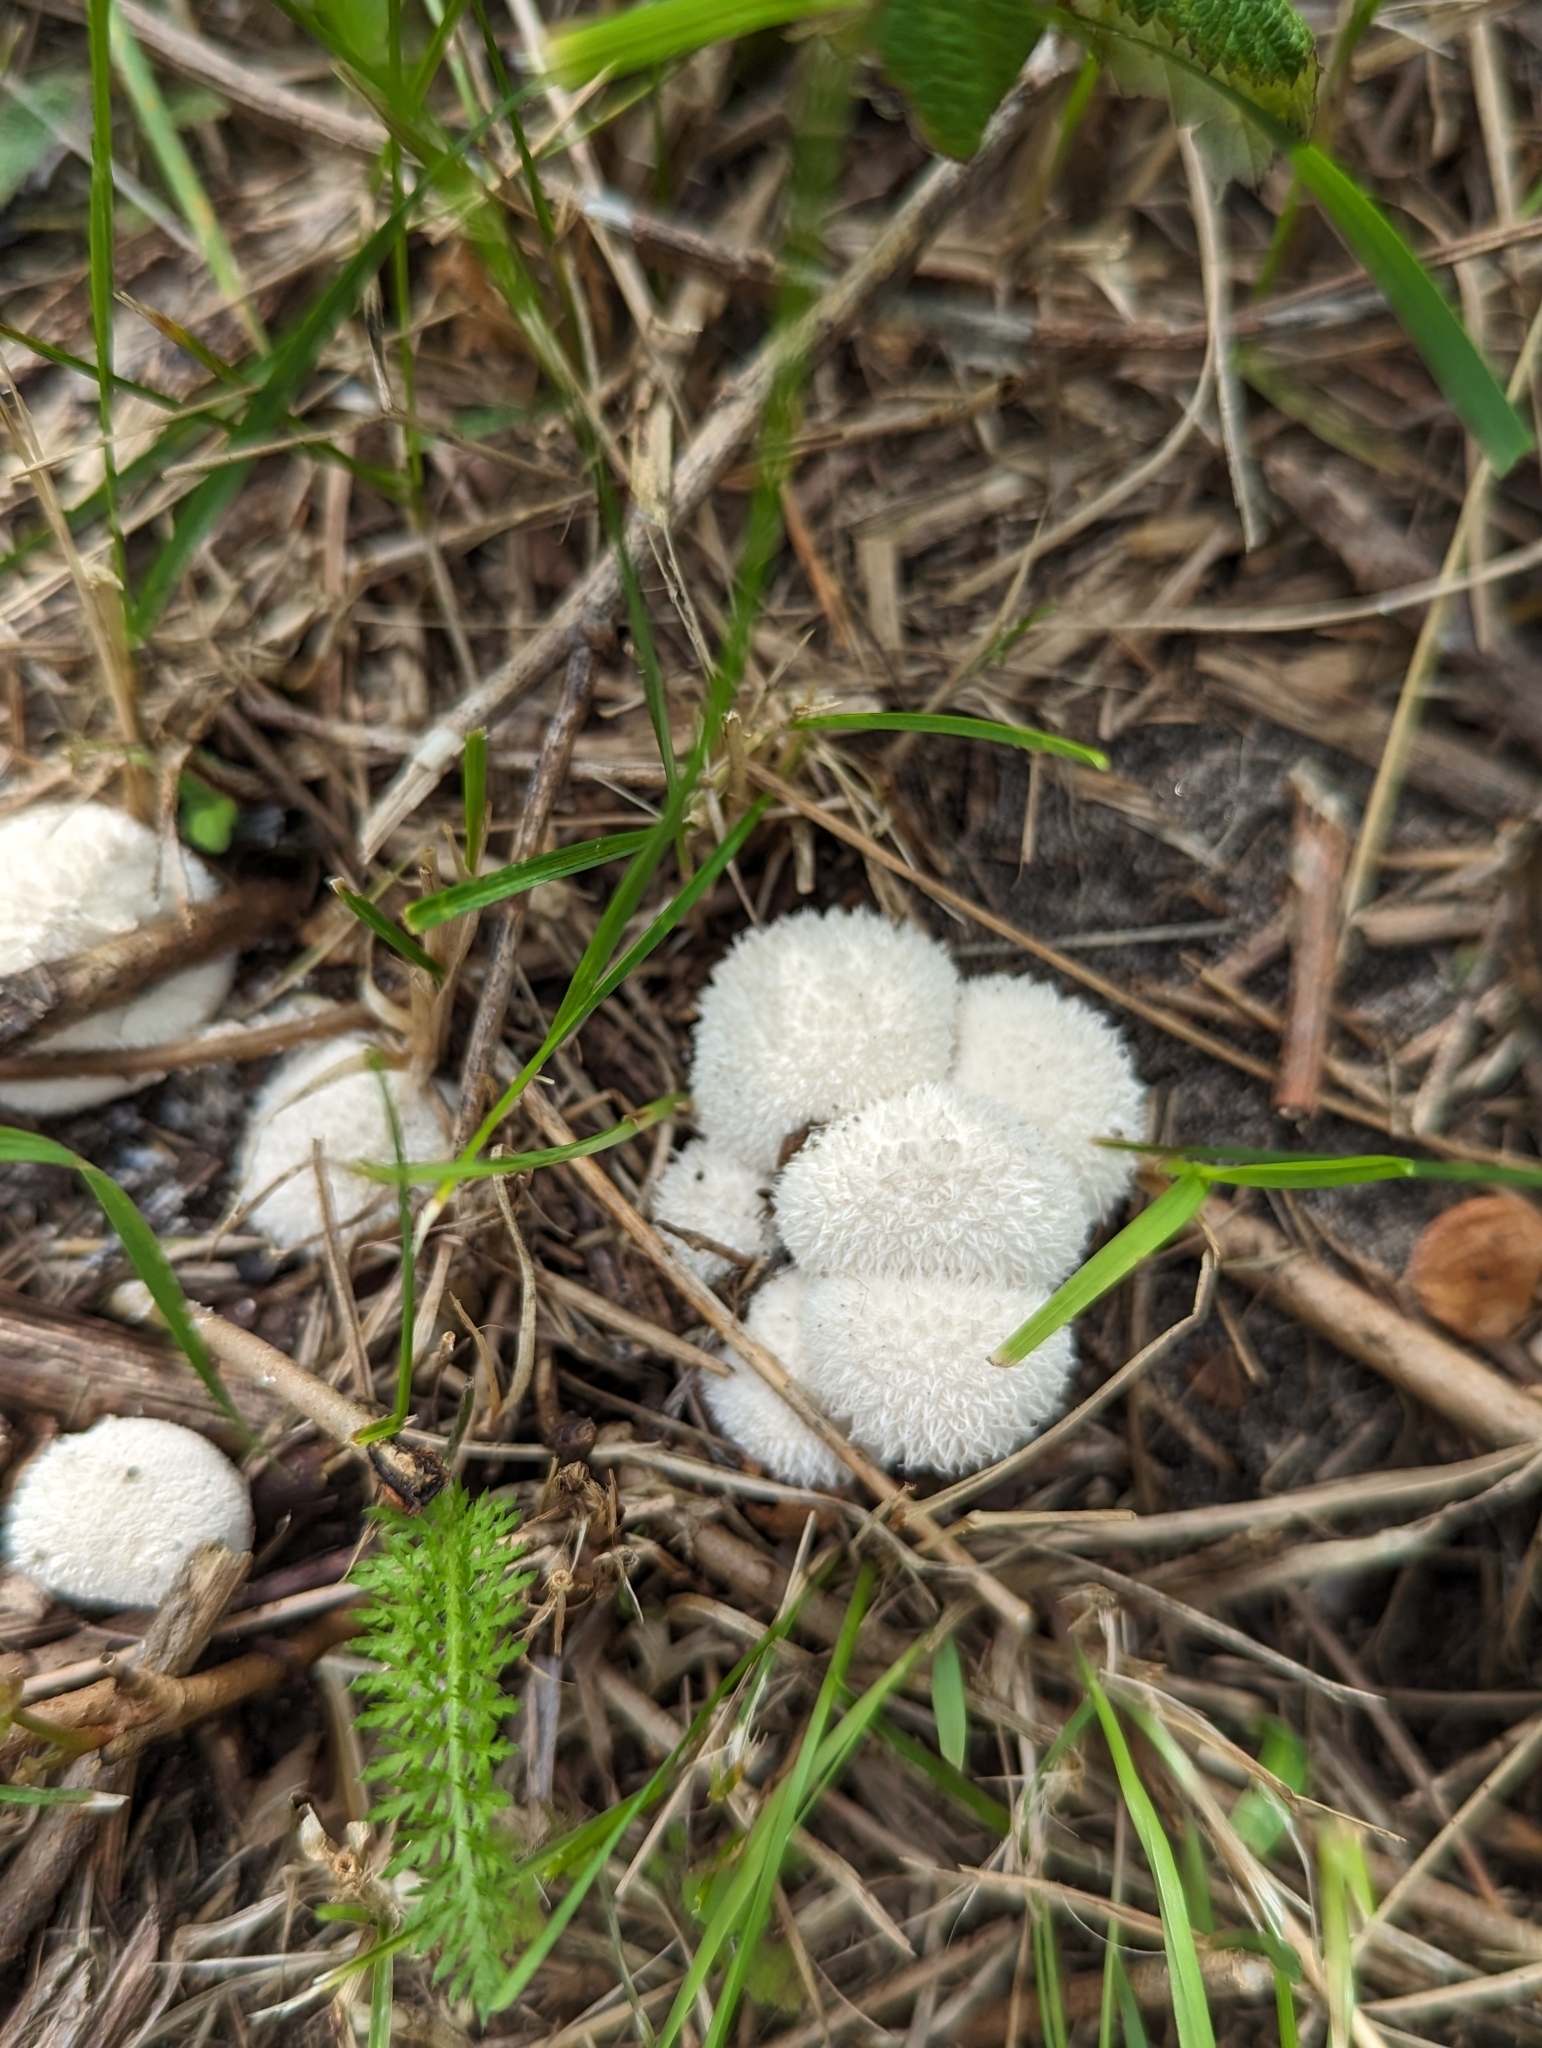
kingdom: Fungi
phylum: Basidiomycota
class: Agaricomycetes
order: Agaricales
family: Lycoperdaceae
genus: Lycoperdon
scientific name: Lycoperdon curtisii
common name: Curtis's puffball
